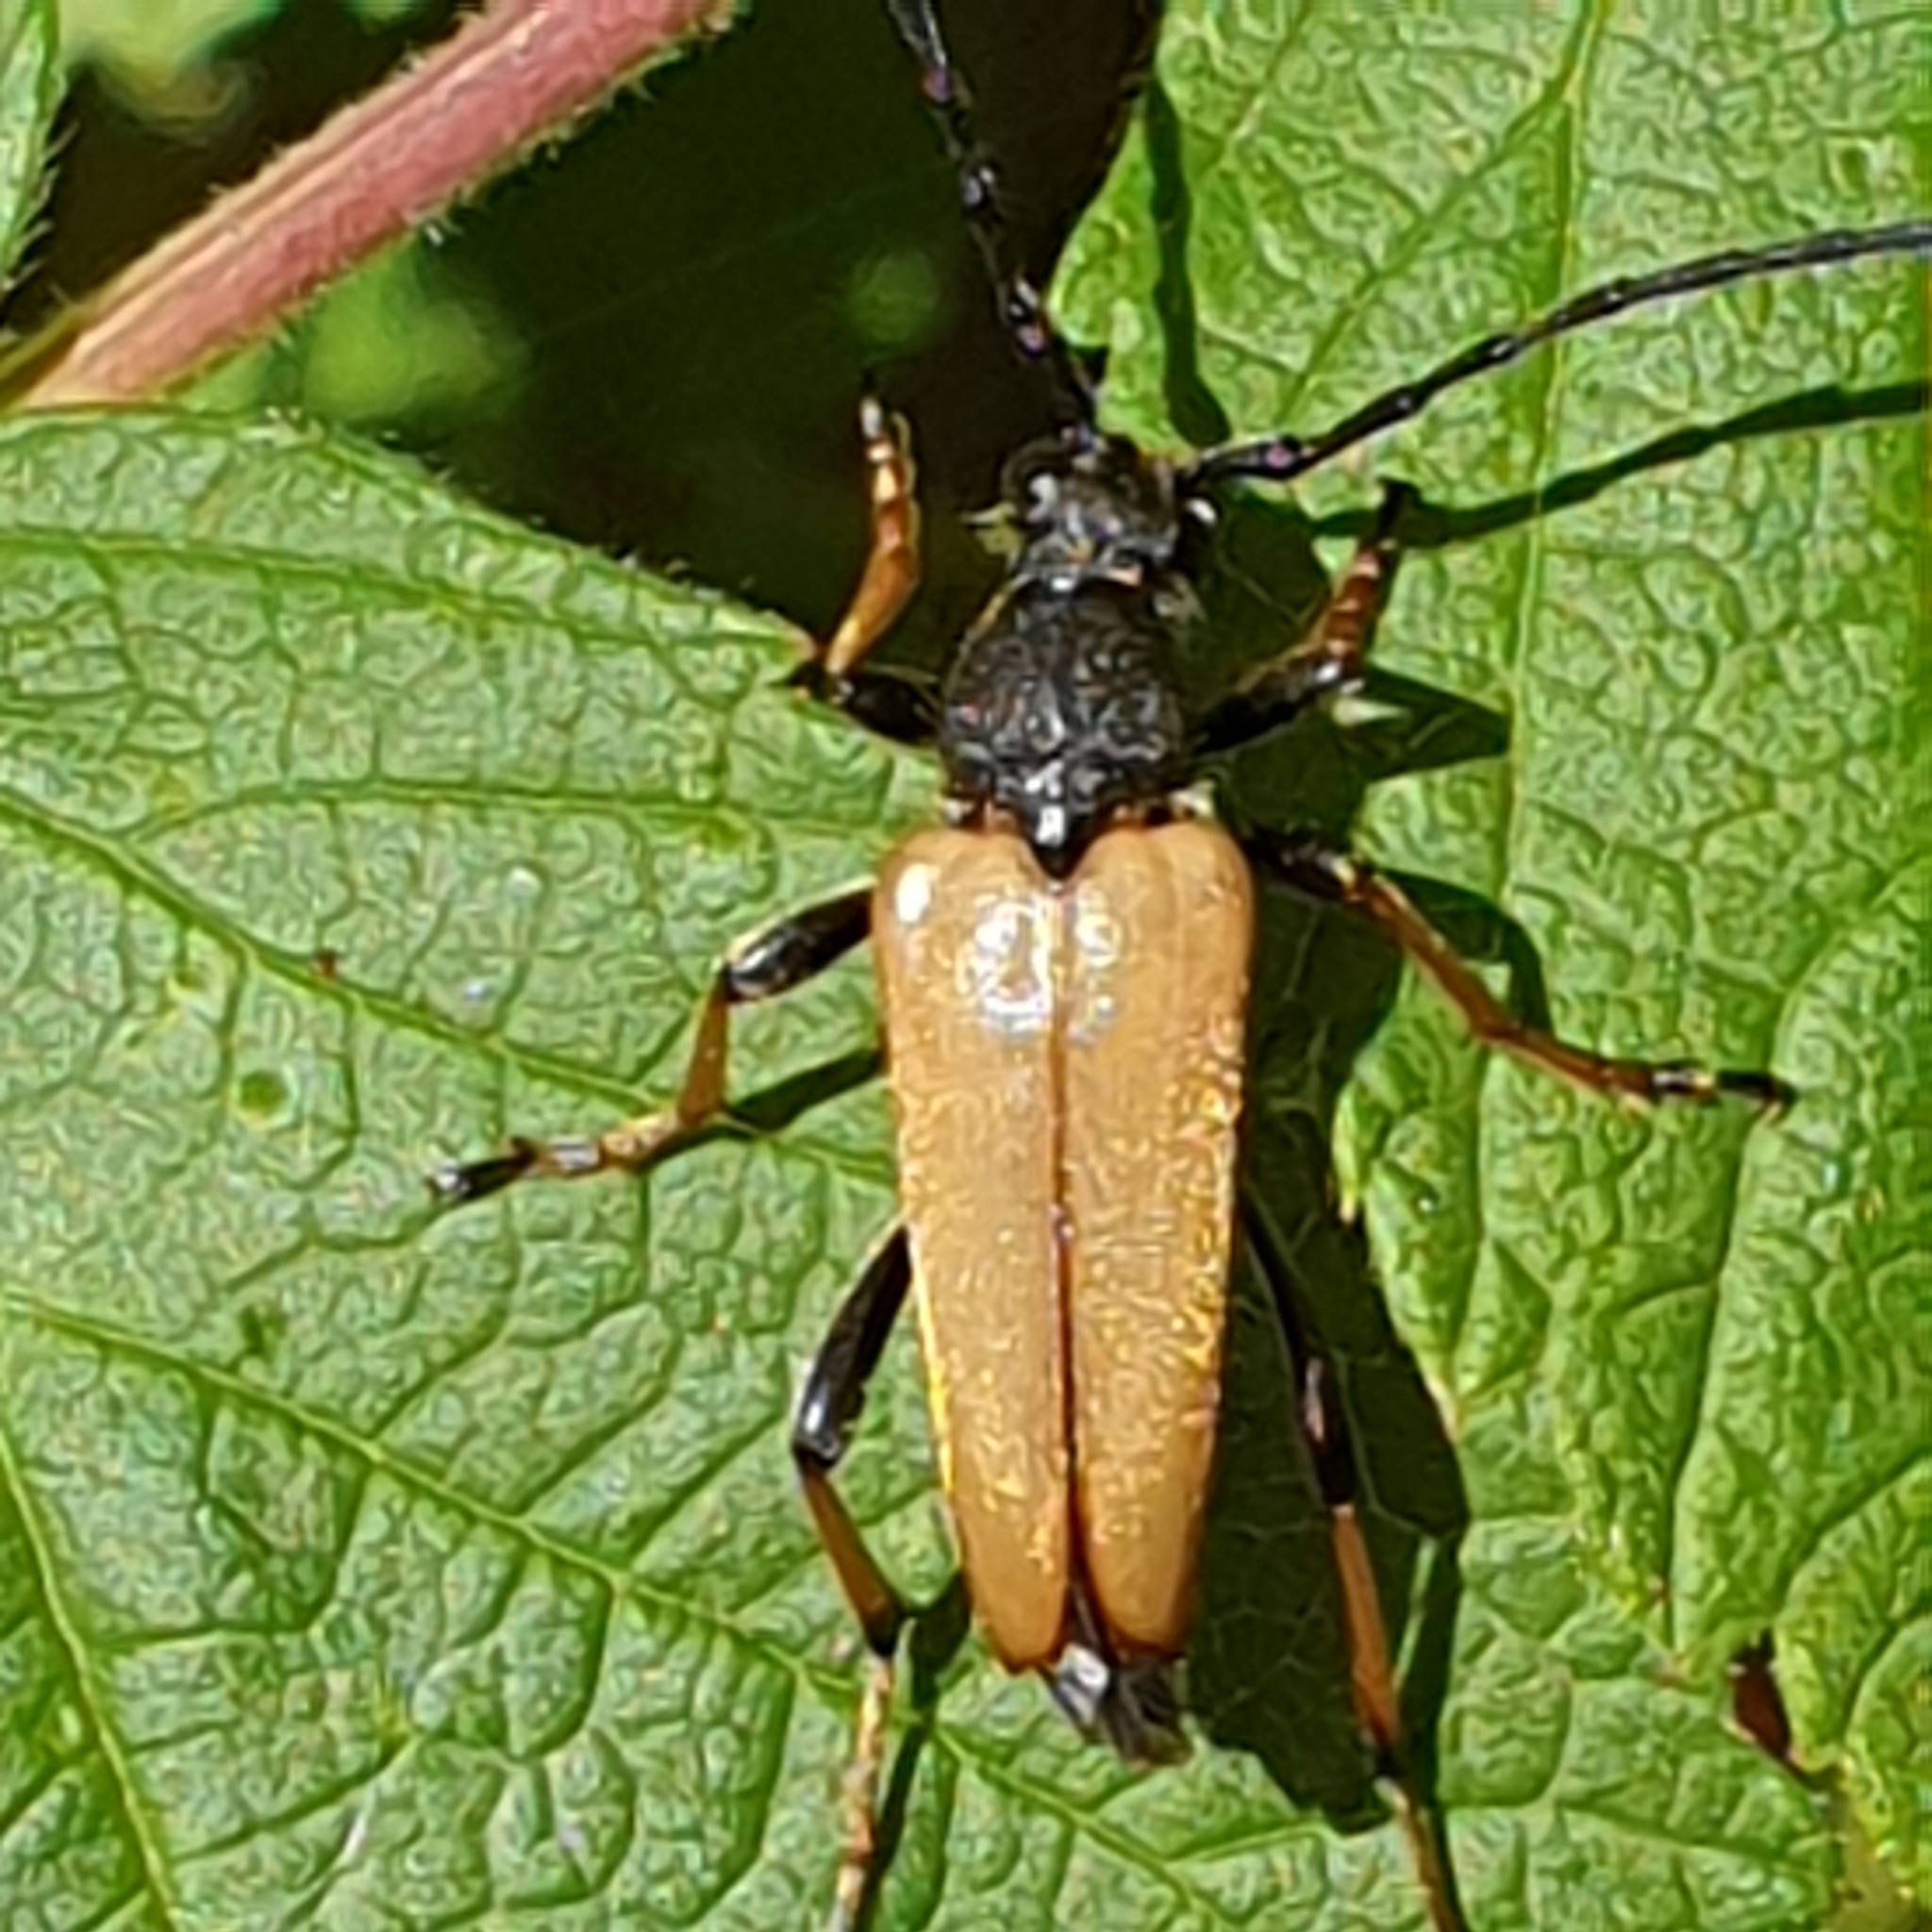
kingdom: Animalia
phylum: Arthropoda
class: Insecta
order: Coleoptera
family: Cerambycidae
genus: Stictoleptura
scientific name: Stictoleptura rubra
